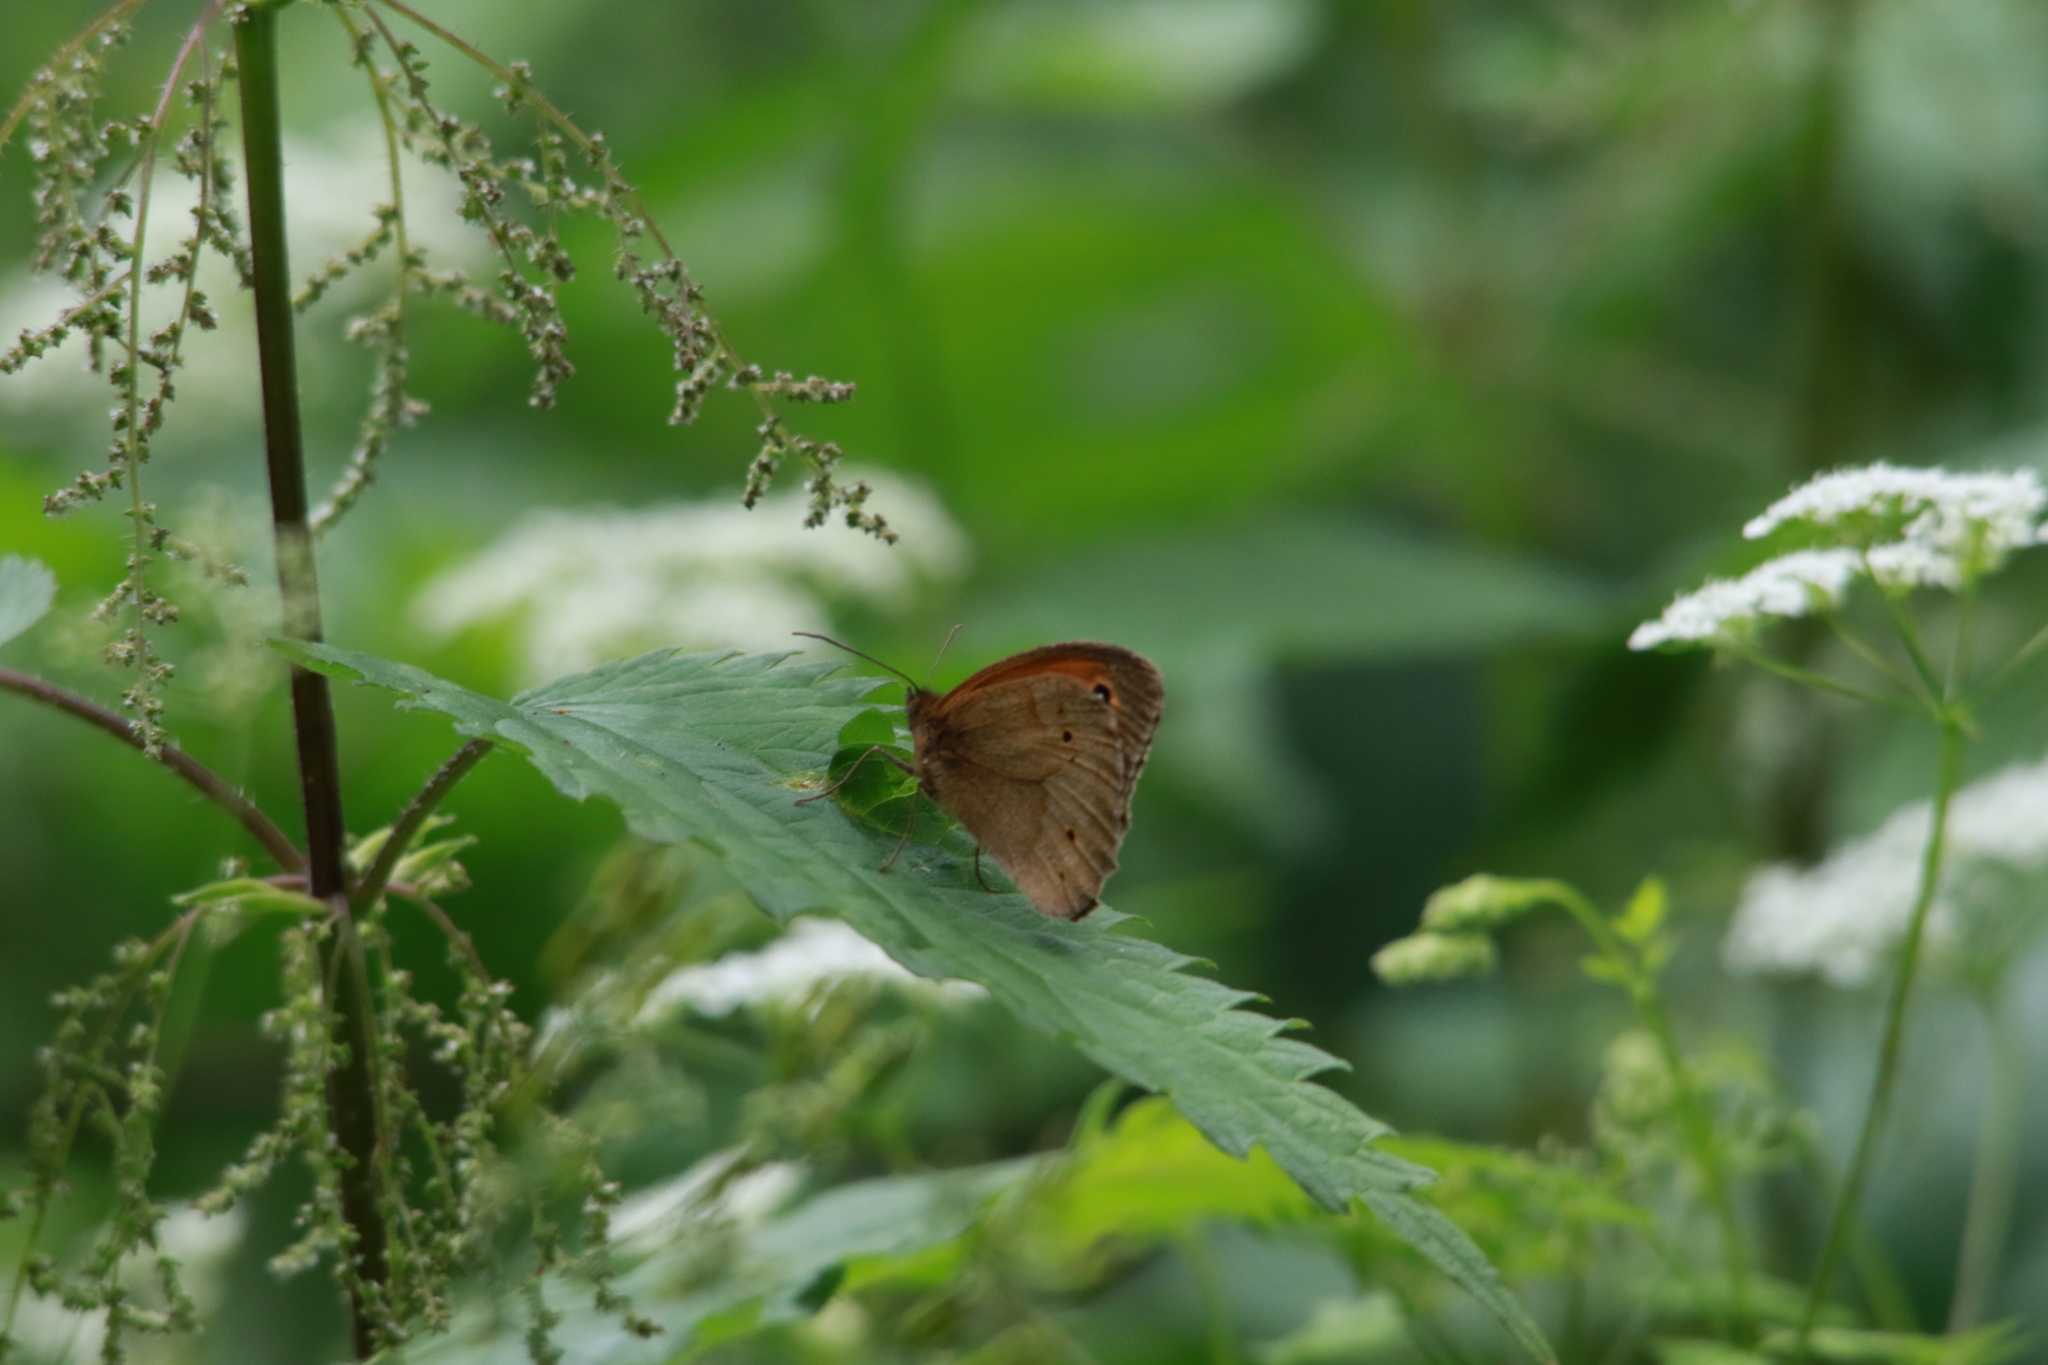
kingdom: Animalia
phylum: Arthropoda
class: Insecta
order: Lepidoptera
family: Nymphalidae
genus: Maniola
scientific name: Maniola jurtina
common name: Meadow brown
